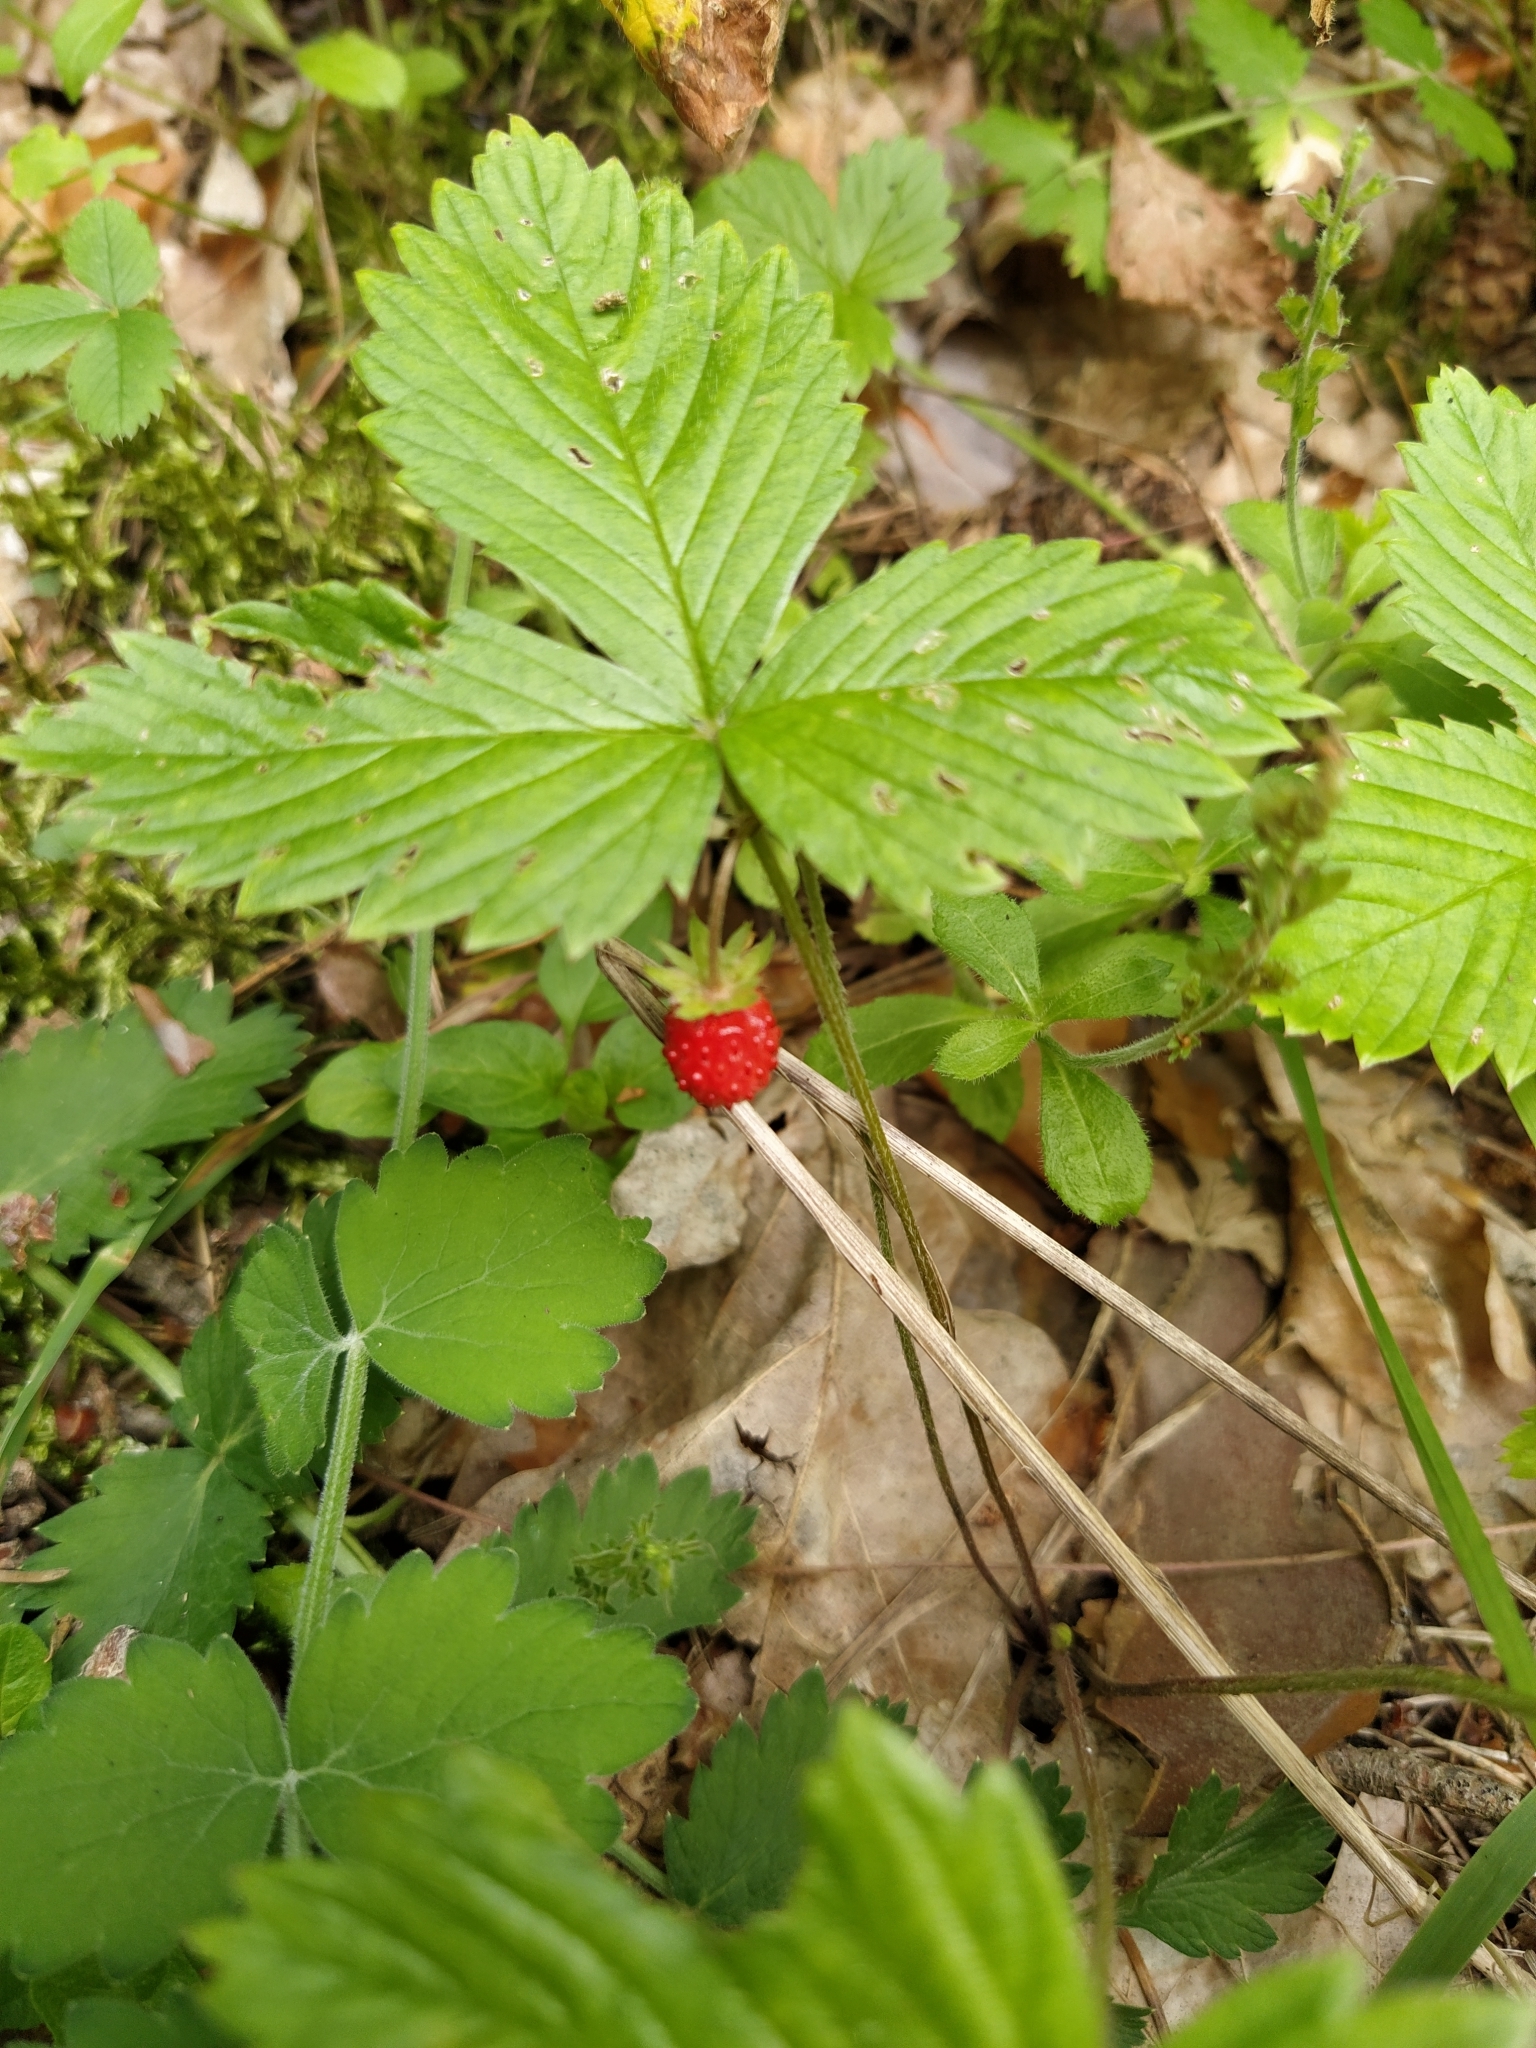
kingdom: Plantae
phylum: Tracheophyta
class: Magnoliopsida
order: Rosales
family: Rosaceae
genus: Fragaria
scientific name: Fragaria vesca
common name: Wild strawberry
